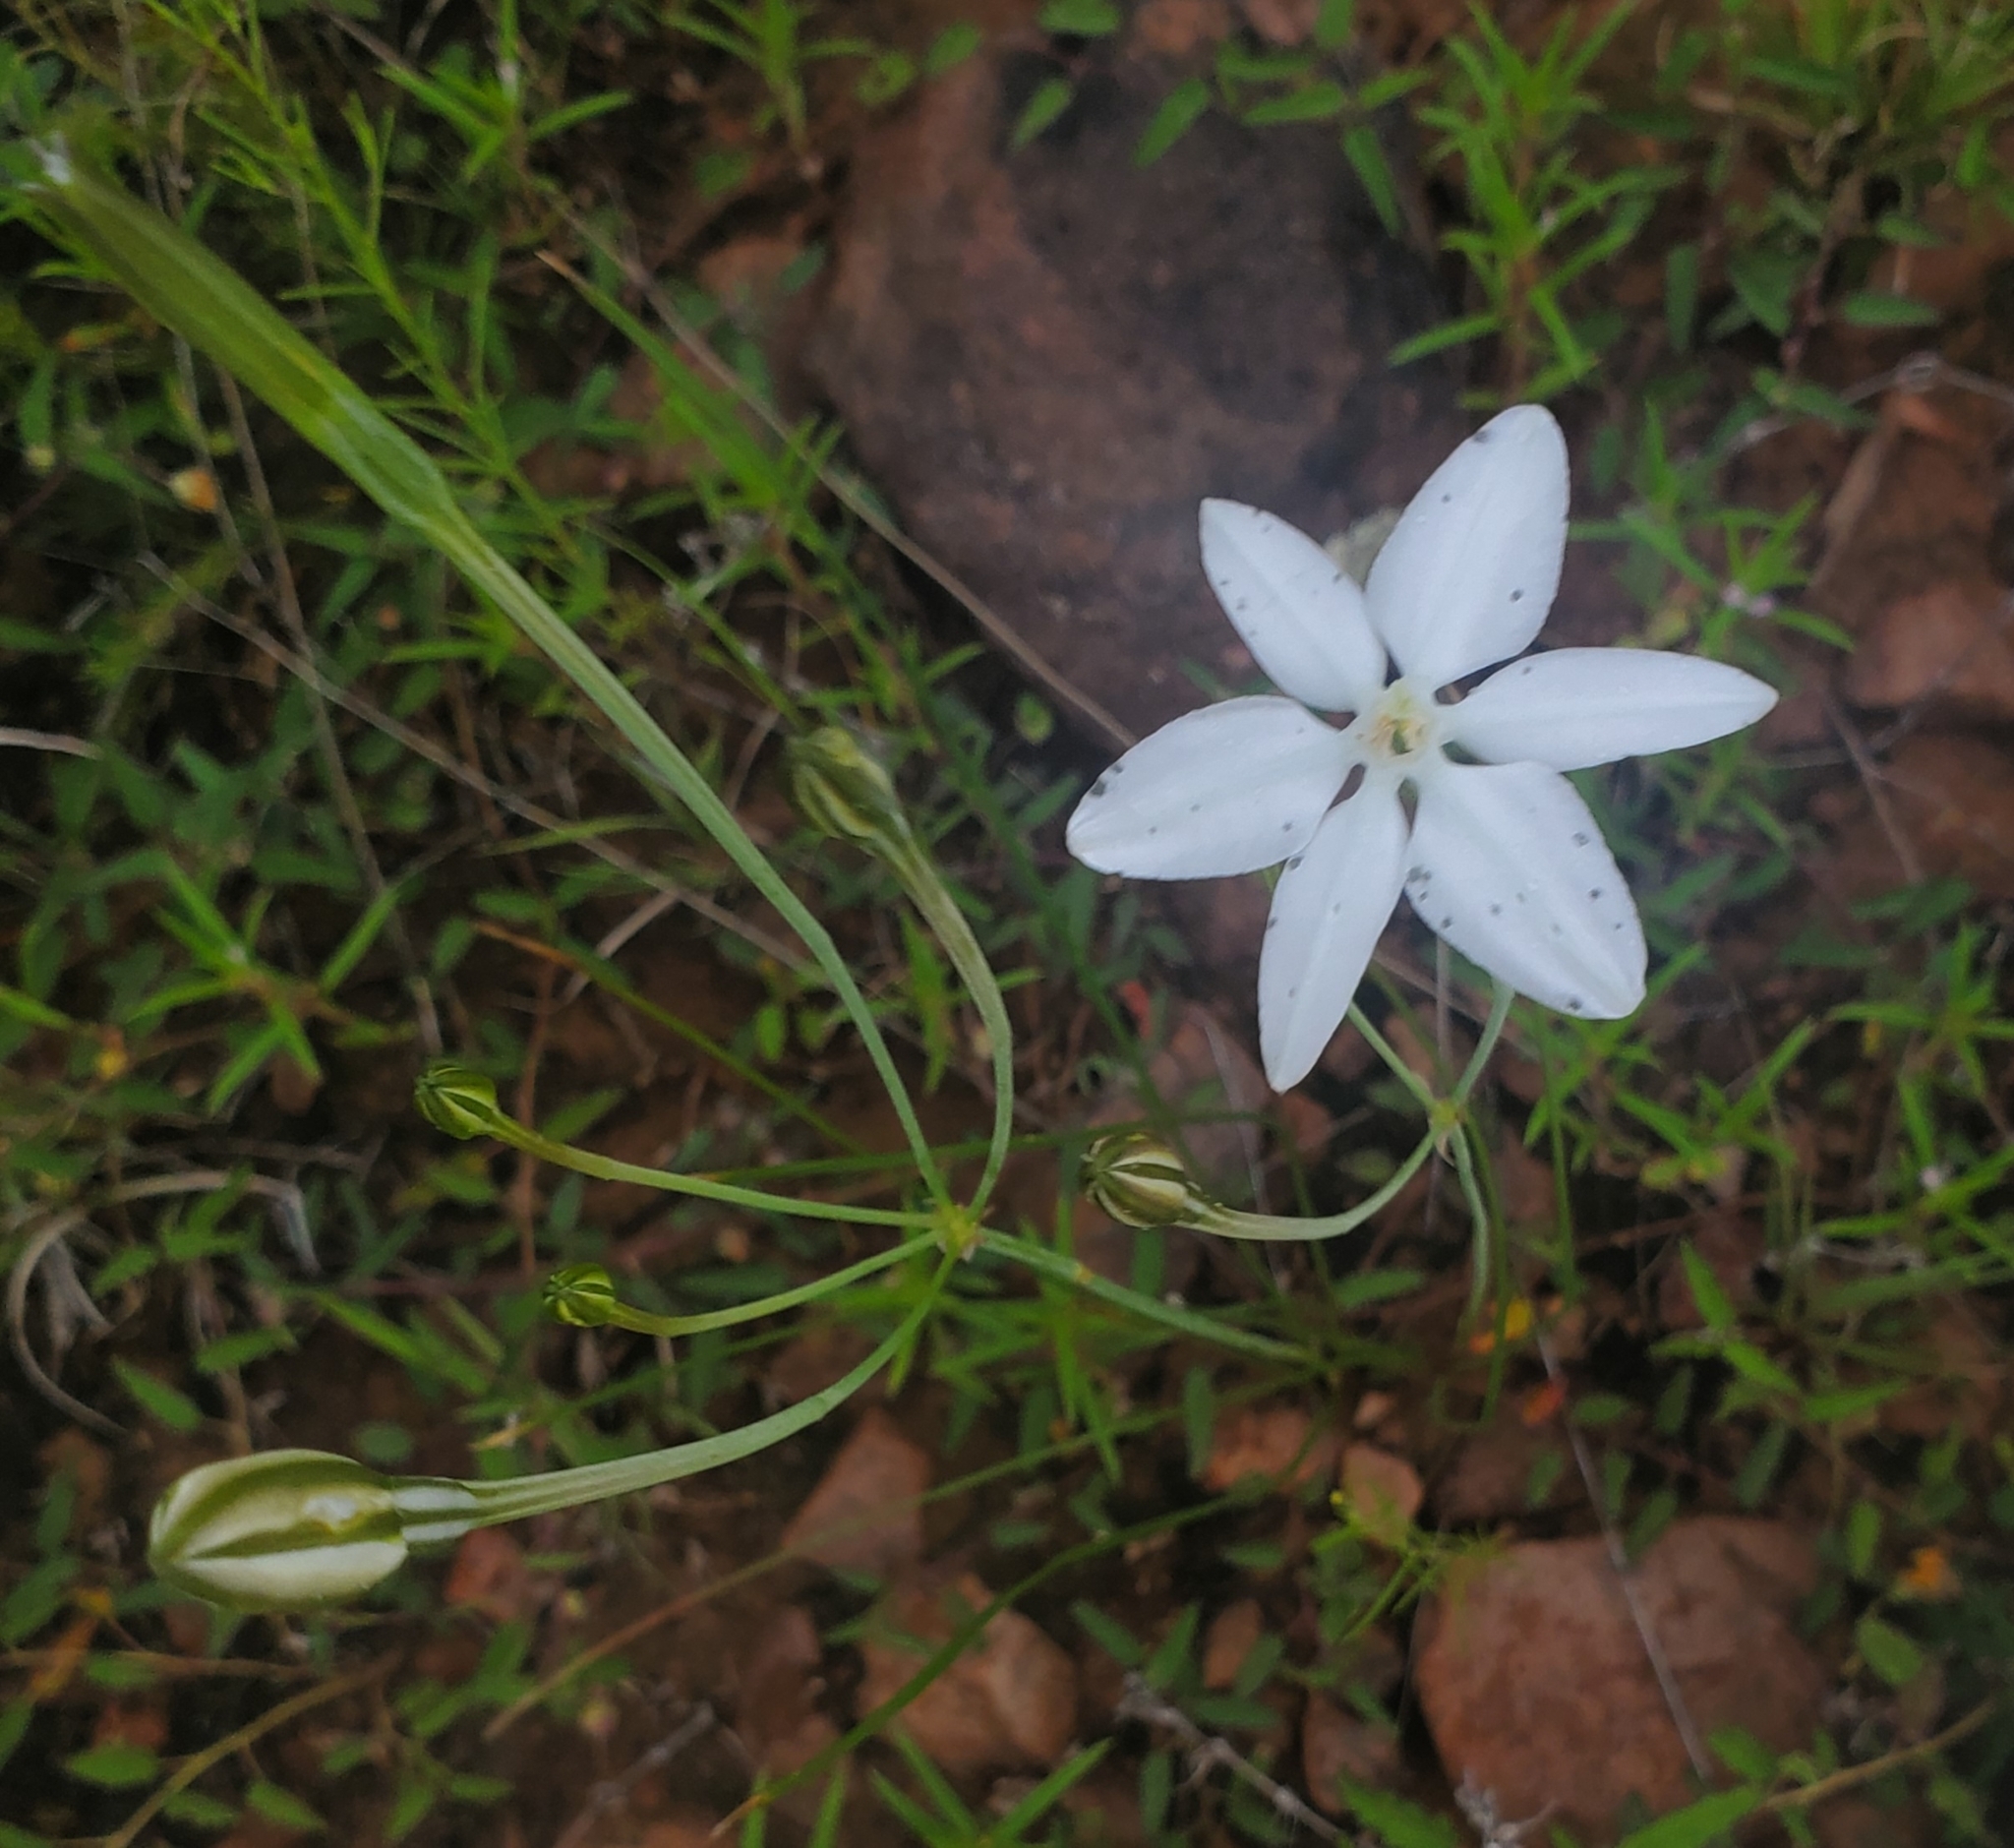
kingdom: Plantae
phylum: Tracheophyta
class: Liliopsida
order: Asparagales
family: Asparagaceae
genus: Milla
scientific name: Milla biflora
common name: Mexican-star
